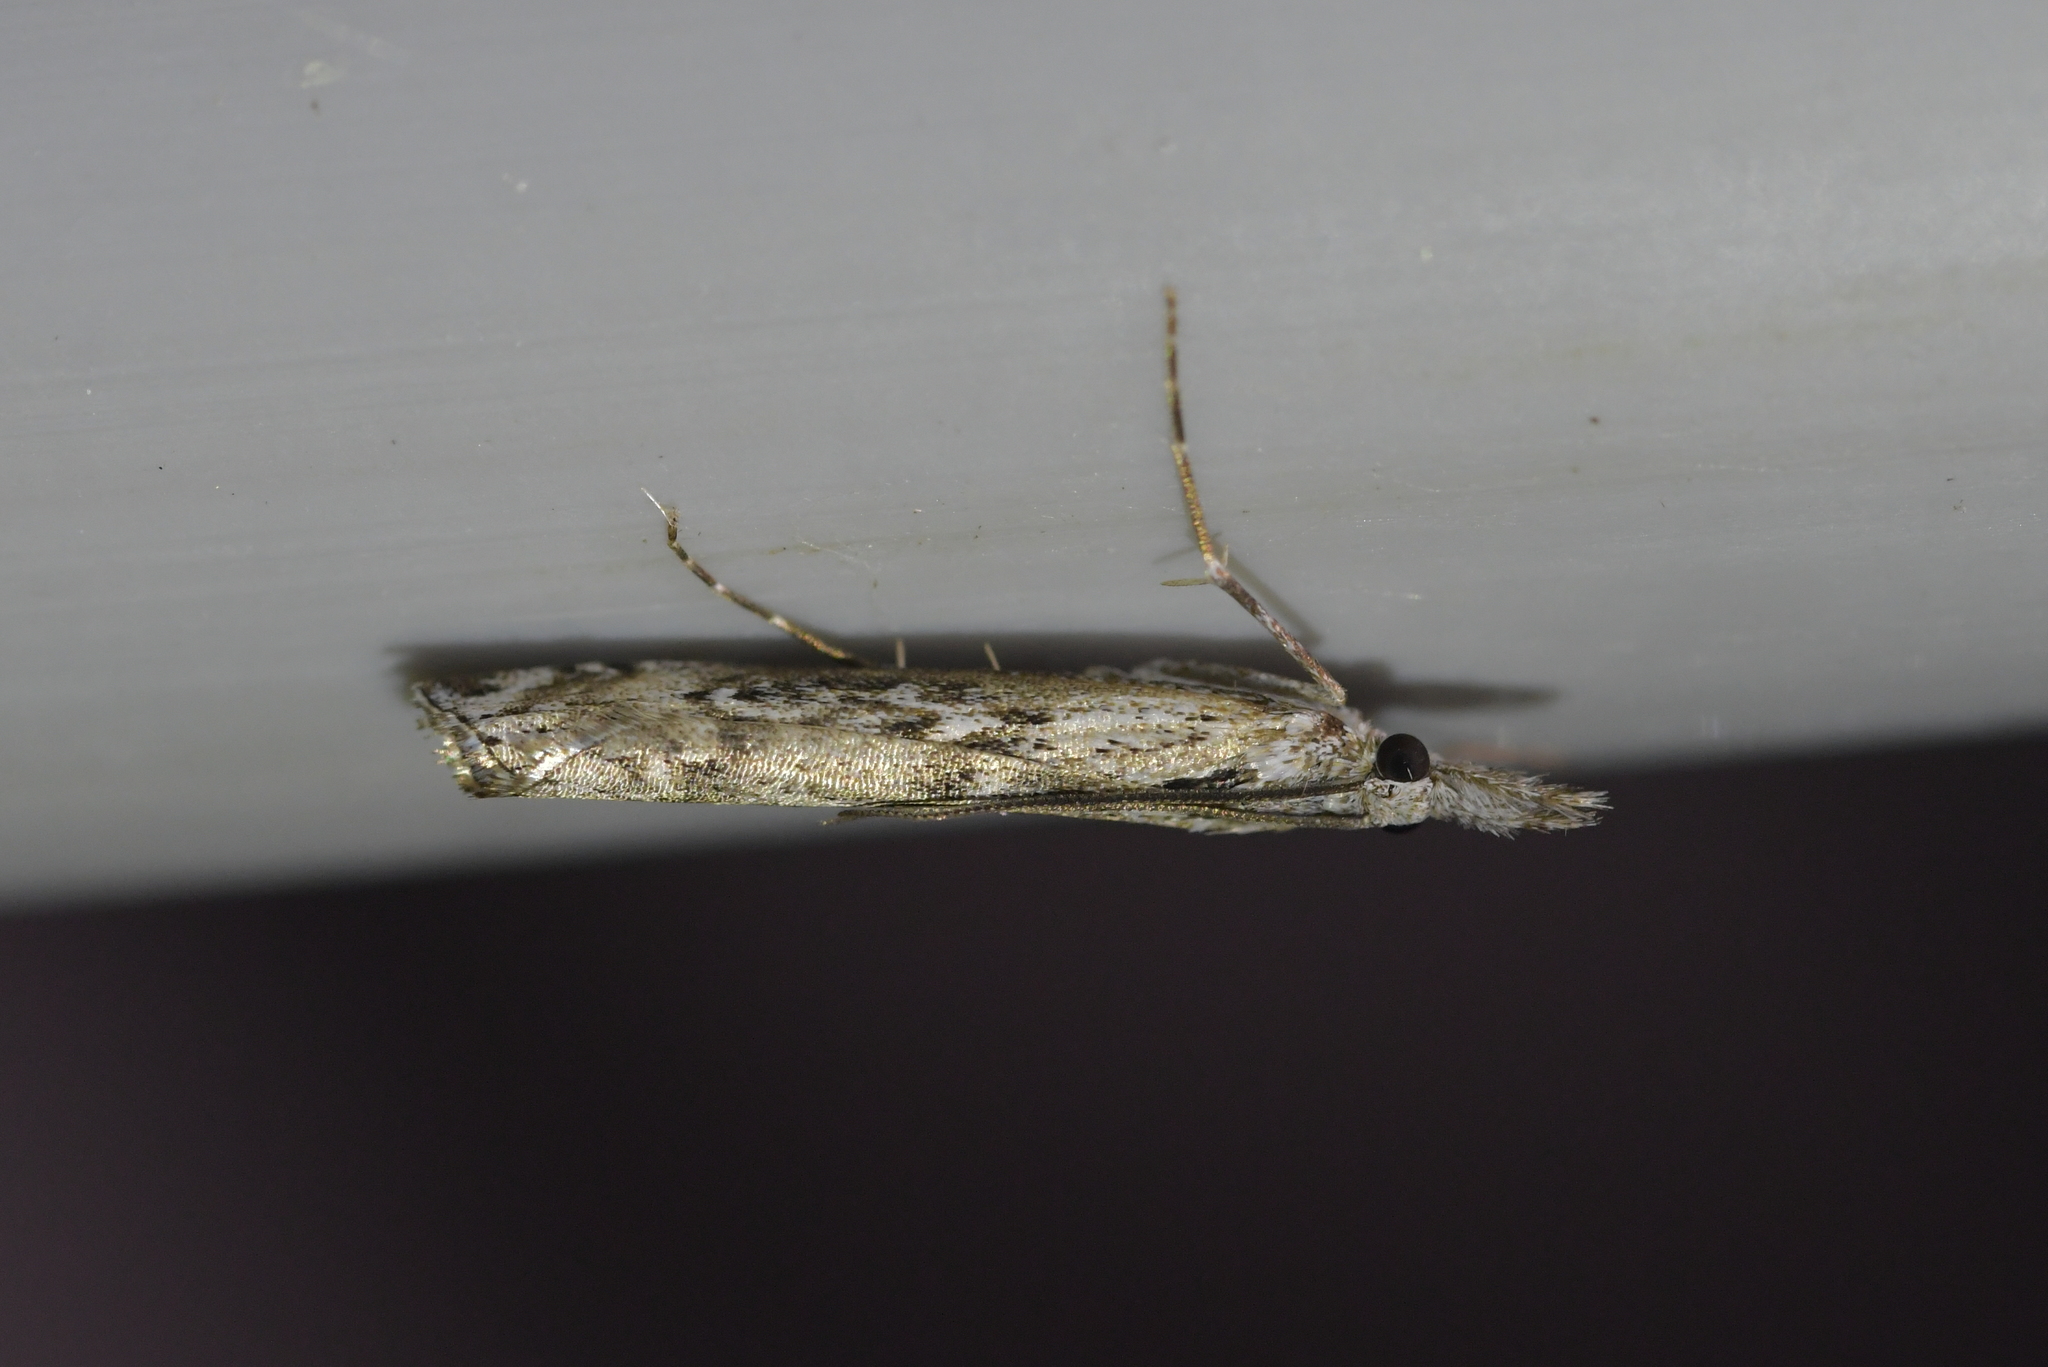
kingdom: Animalia
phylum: Arthropoda
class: Insecta
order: Lepidoptera
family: Crambidae
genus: Orocrambus
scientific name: Orocrambus cyclopicus
